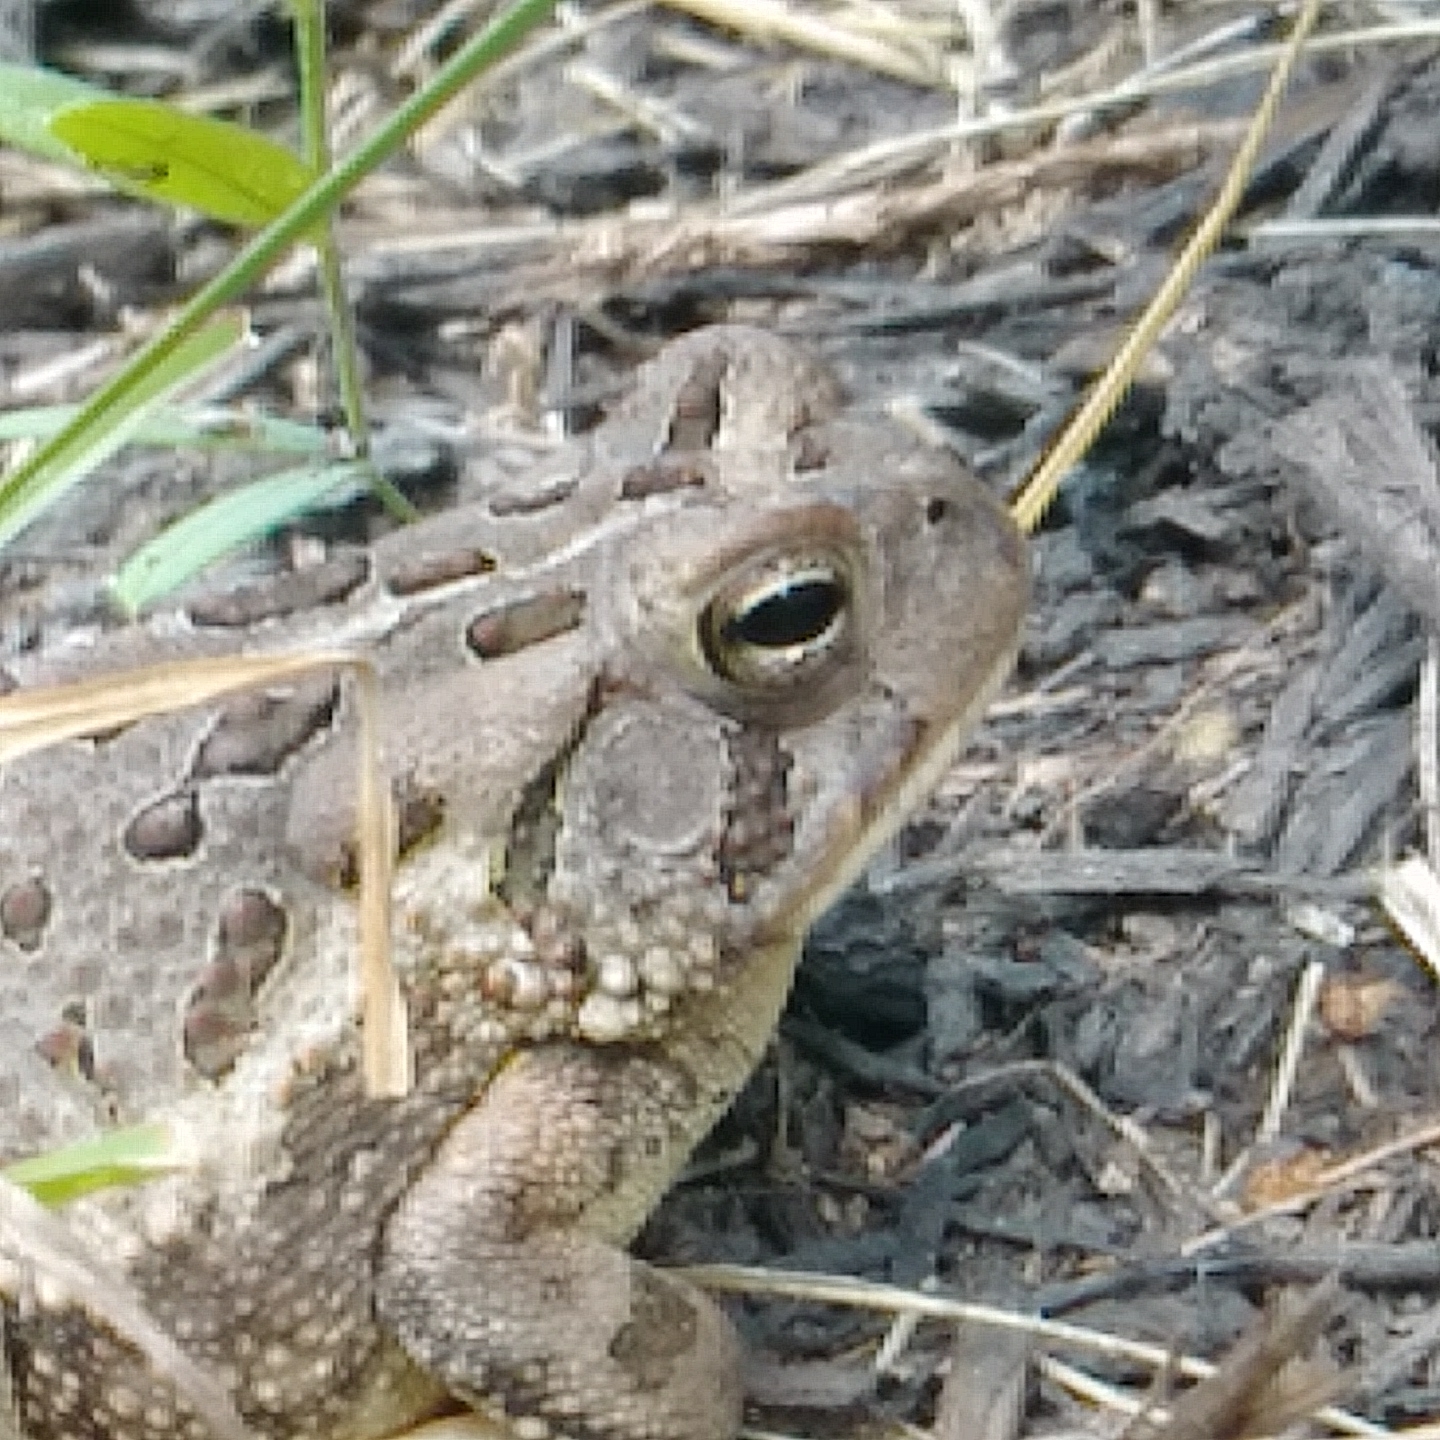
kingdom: Animalia
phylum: Chordata
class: Amphibia
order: Anura
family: Bufonidae
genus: Anaxyrus
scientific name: Anaxyrus fowleri
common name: Fowler's toad
